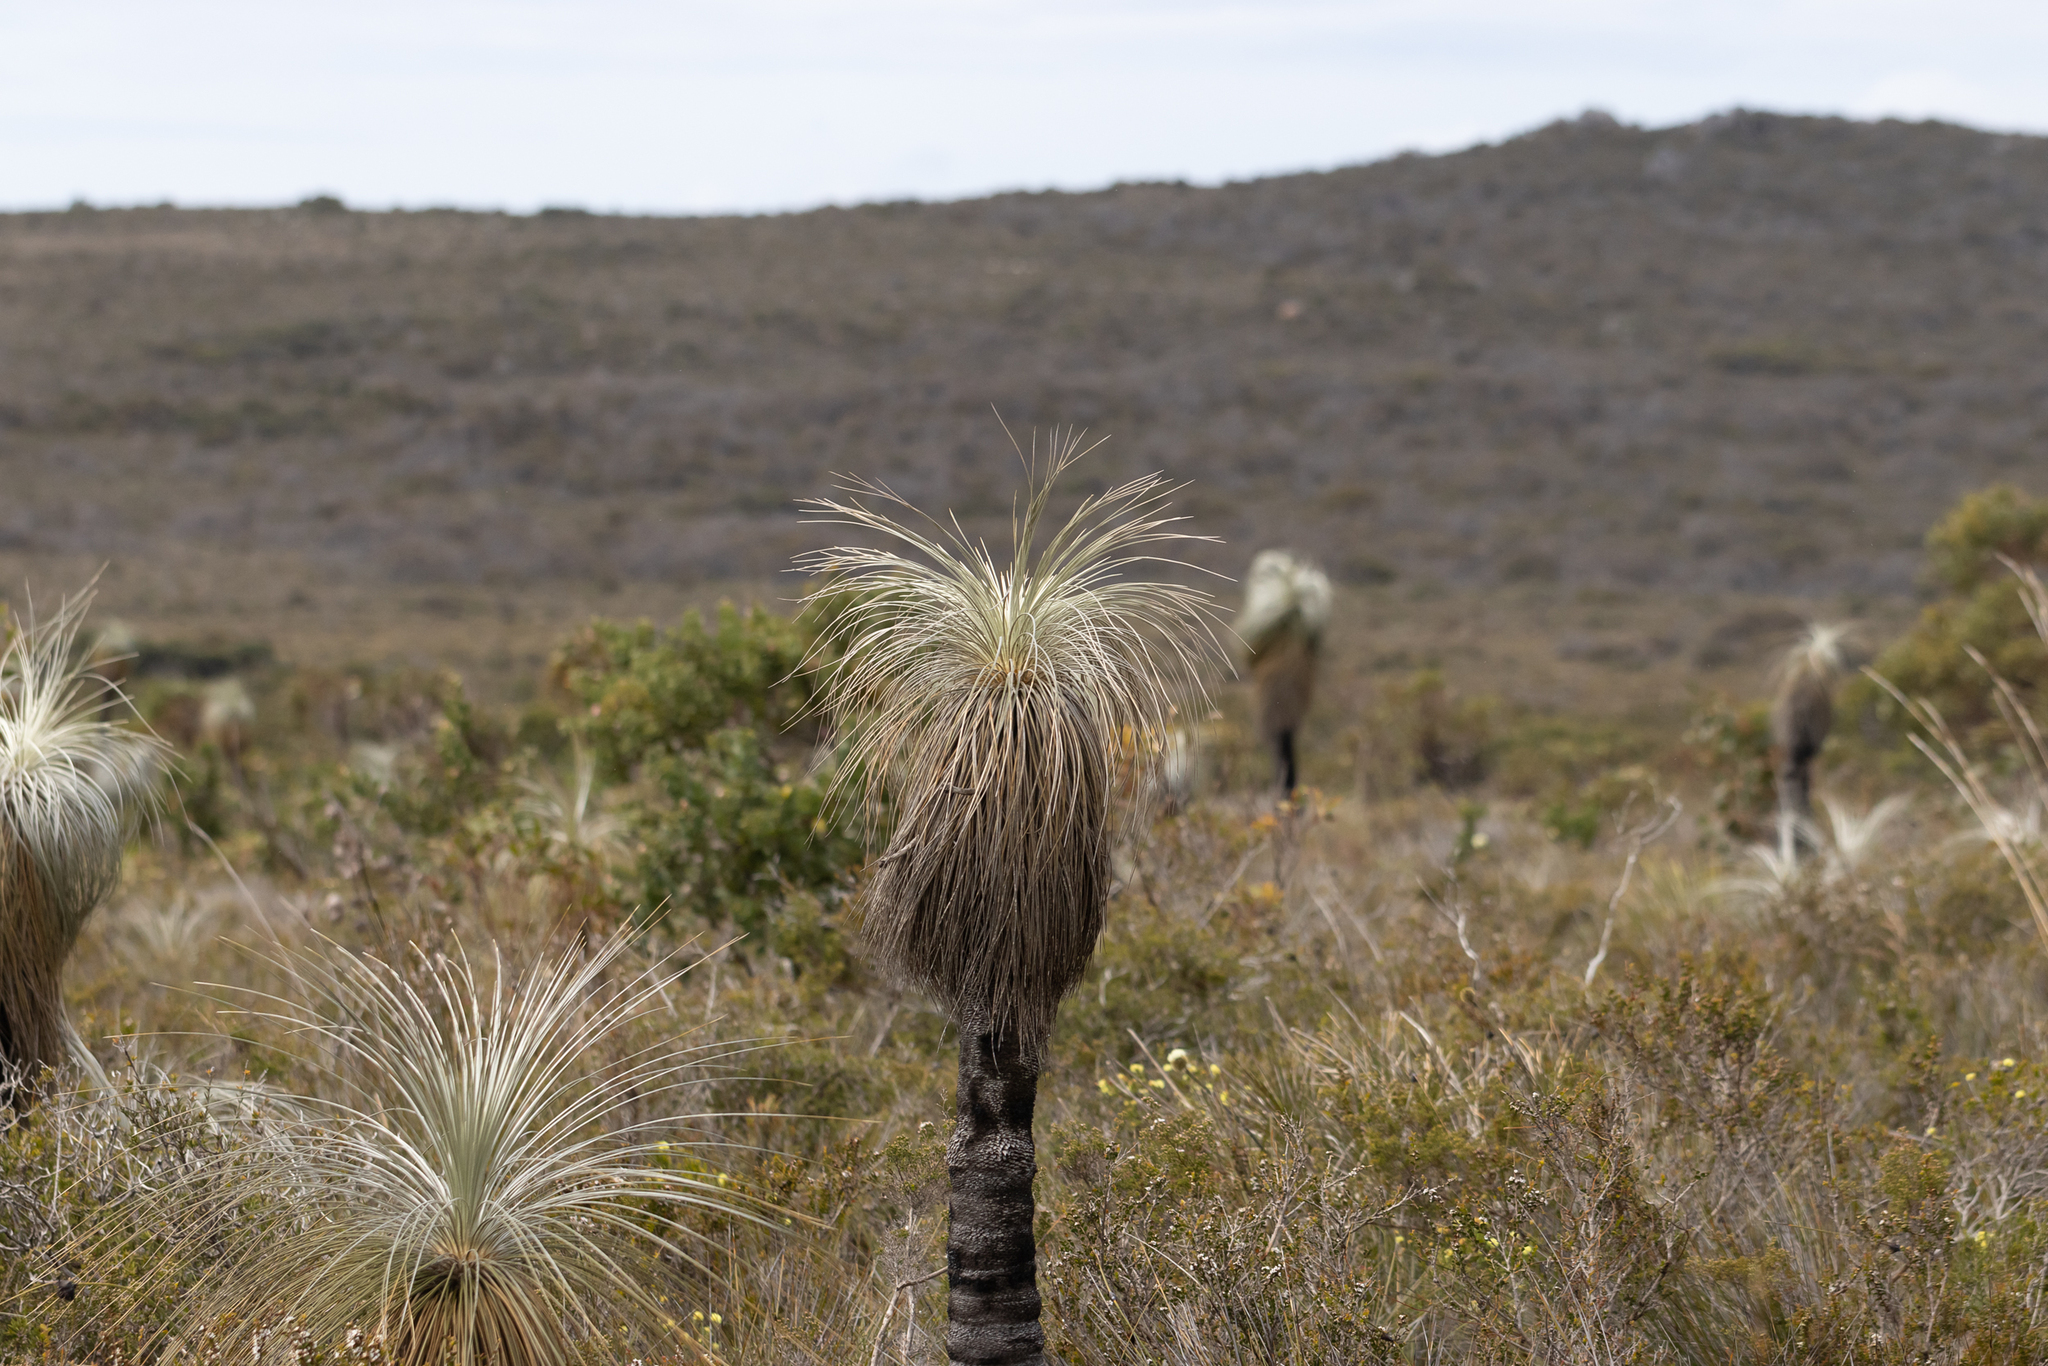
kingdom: Plantae
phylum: Tracheophyta
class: Liliopsida
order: Arecales
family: Dasypogonaceae
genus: Kingia
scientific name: Kingia australis
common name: Black gin
